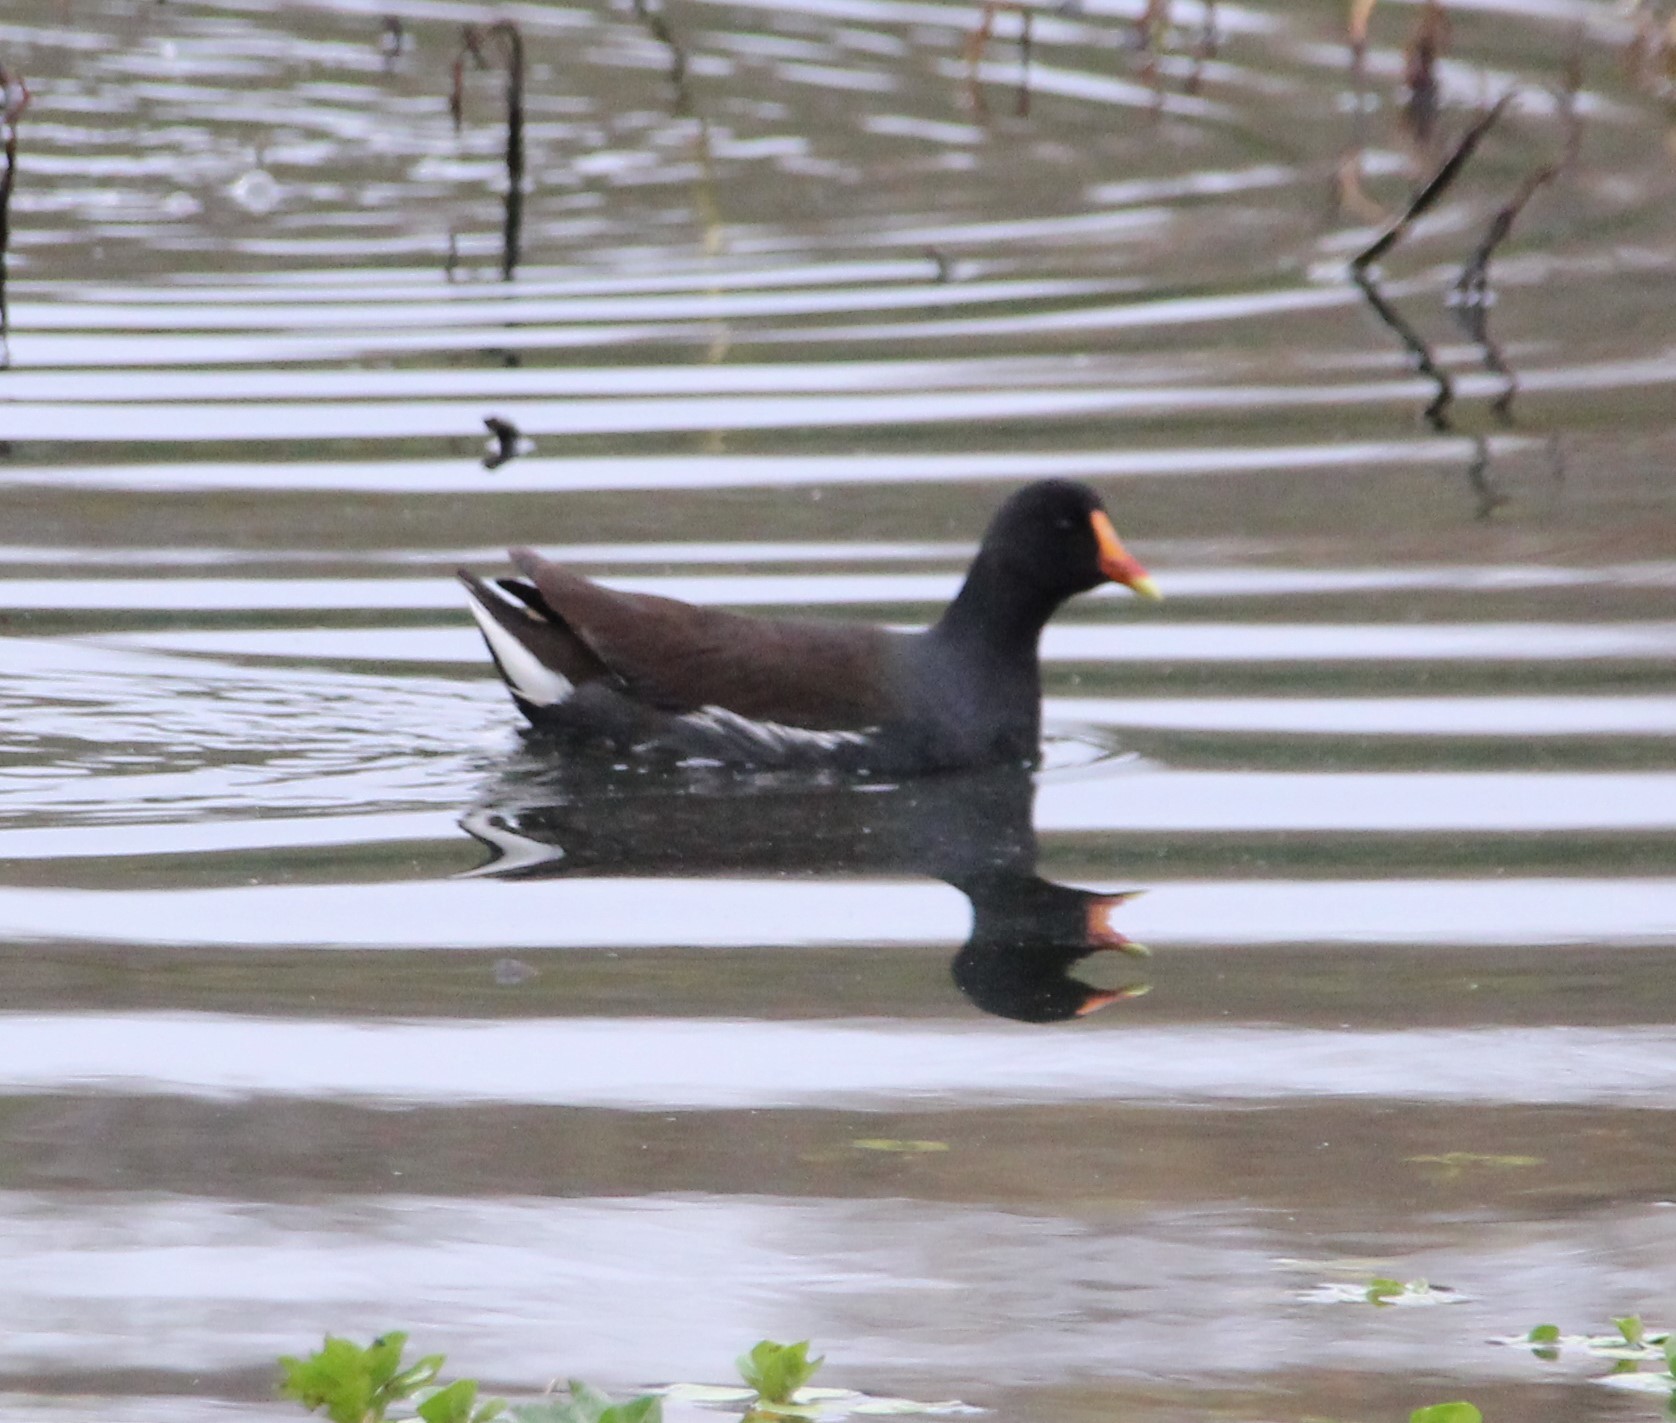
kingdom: Animalia
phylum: Chordata
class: Aves
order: Gruiformes
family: Rallidae
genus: Gallinula
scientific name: Gallinula chloropus
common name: Common moorhen
